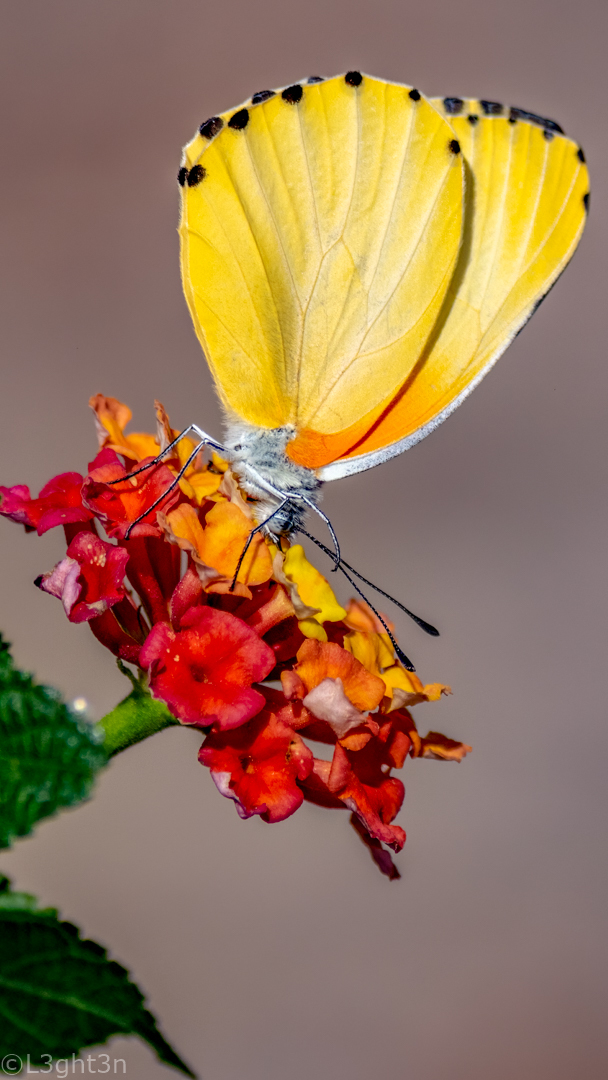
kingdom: Animalia
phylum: Arthropoda
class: Insecta
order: Lepidoptera
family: Pieridae
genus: Mylothris
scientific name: Mylothris agathina
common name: Eastern dotted border
